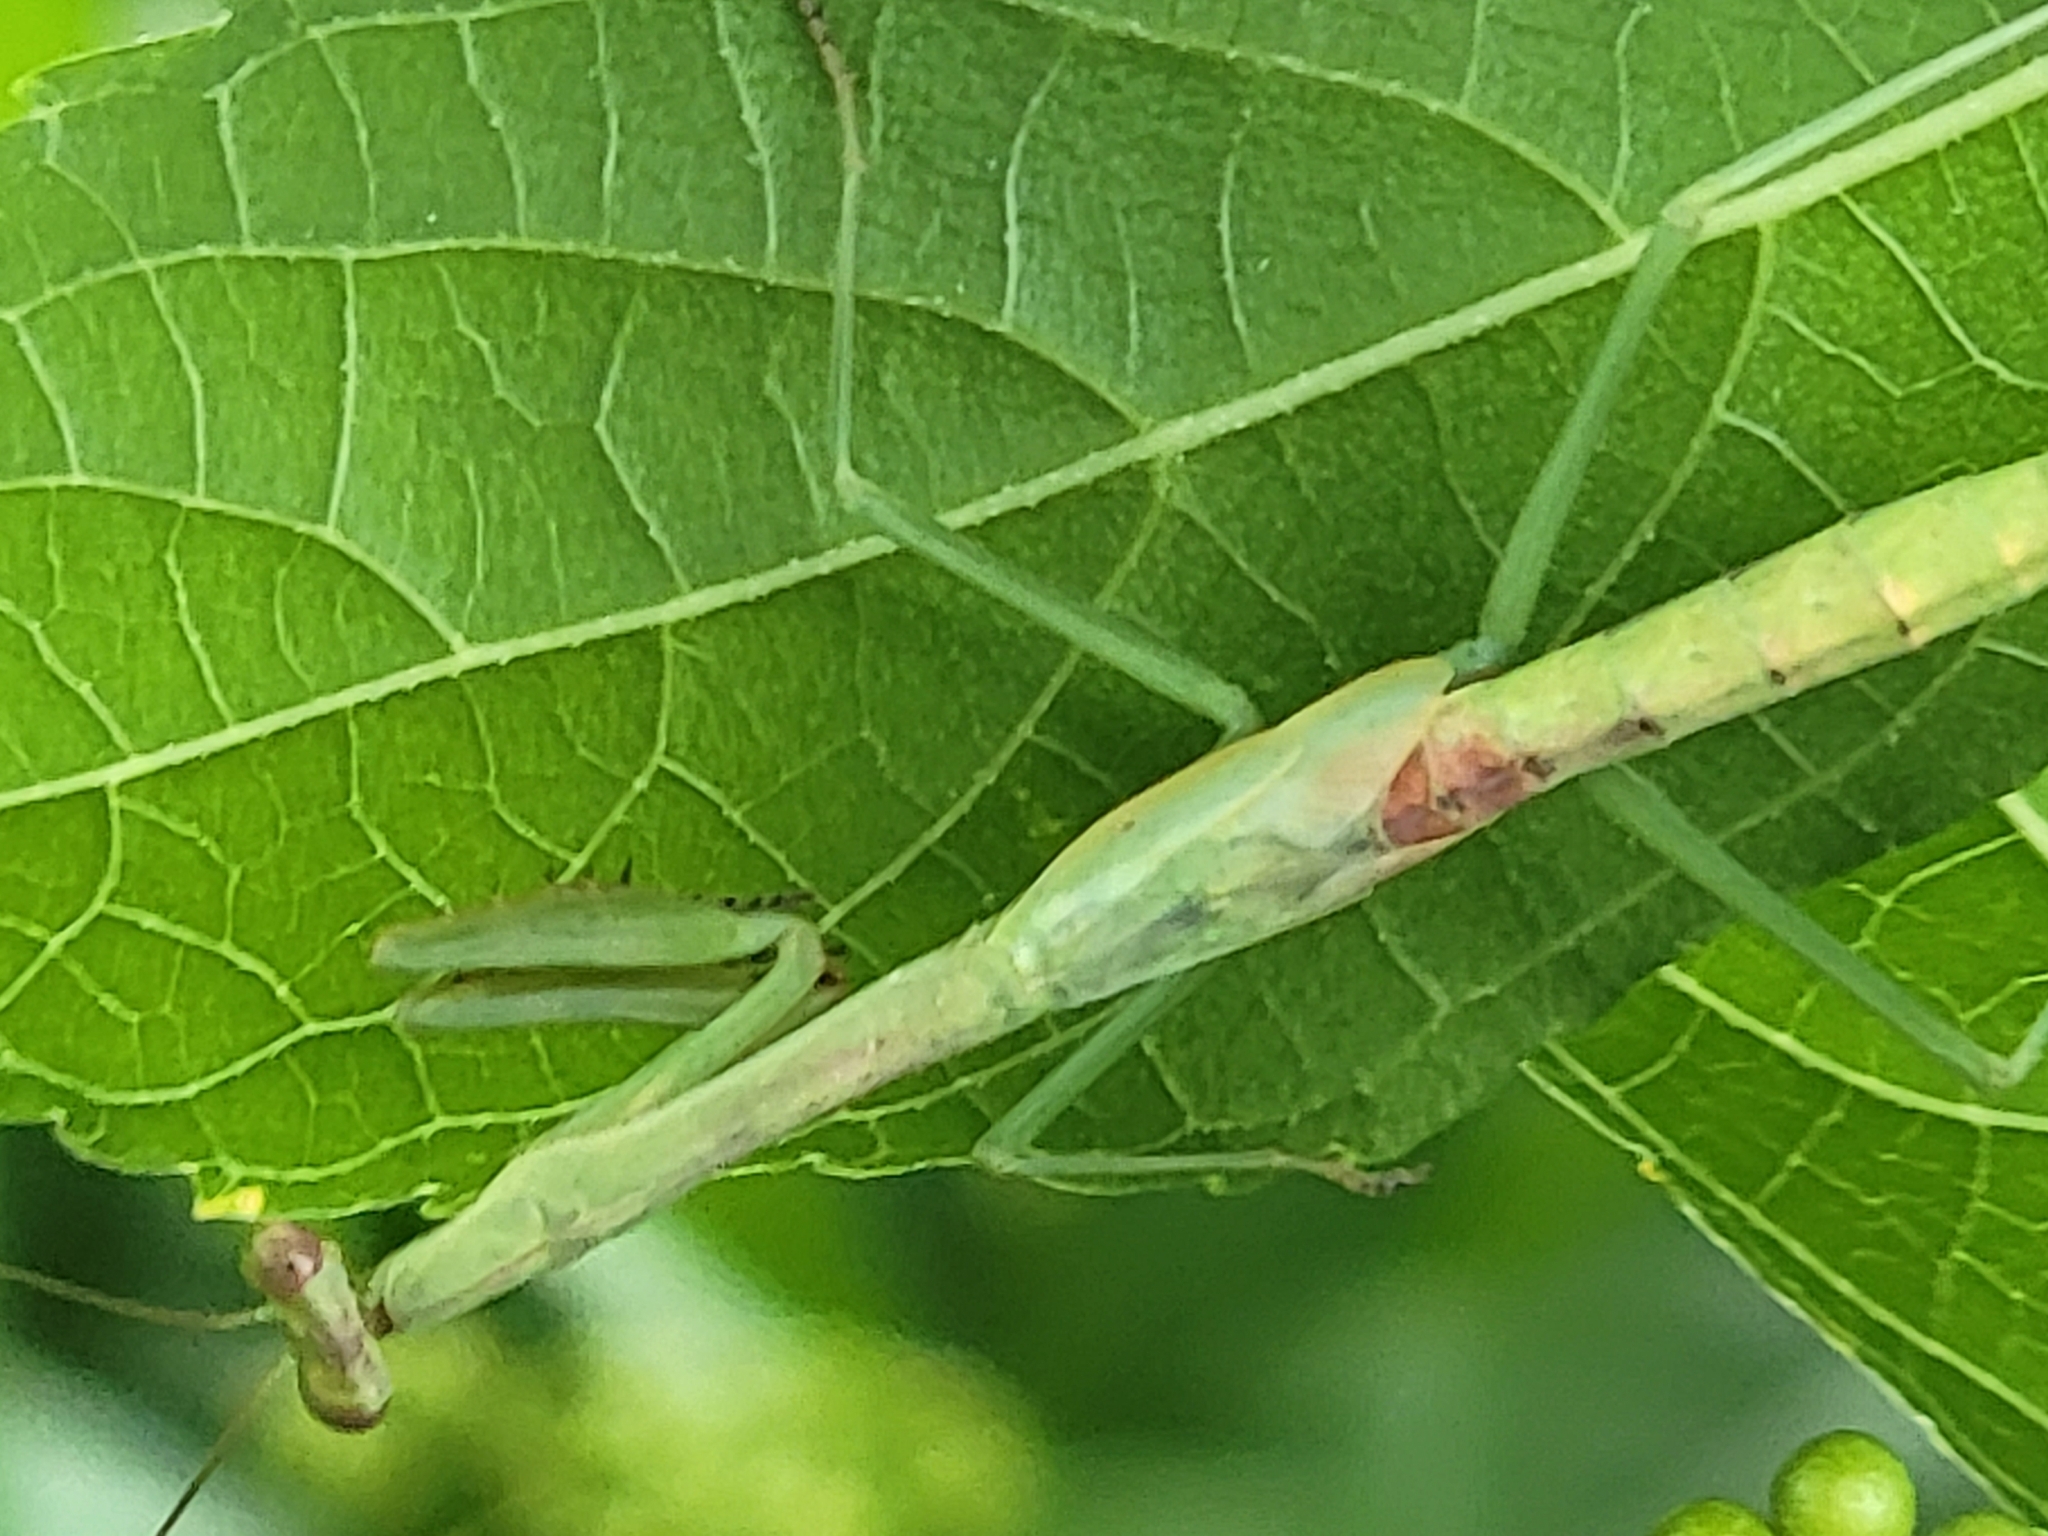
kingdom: Animalia
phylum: Arthropoda
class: Insecta
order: Mantodea
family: Mantidae
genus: Stagmomantis
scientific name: Stagmomantis carolina
